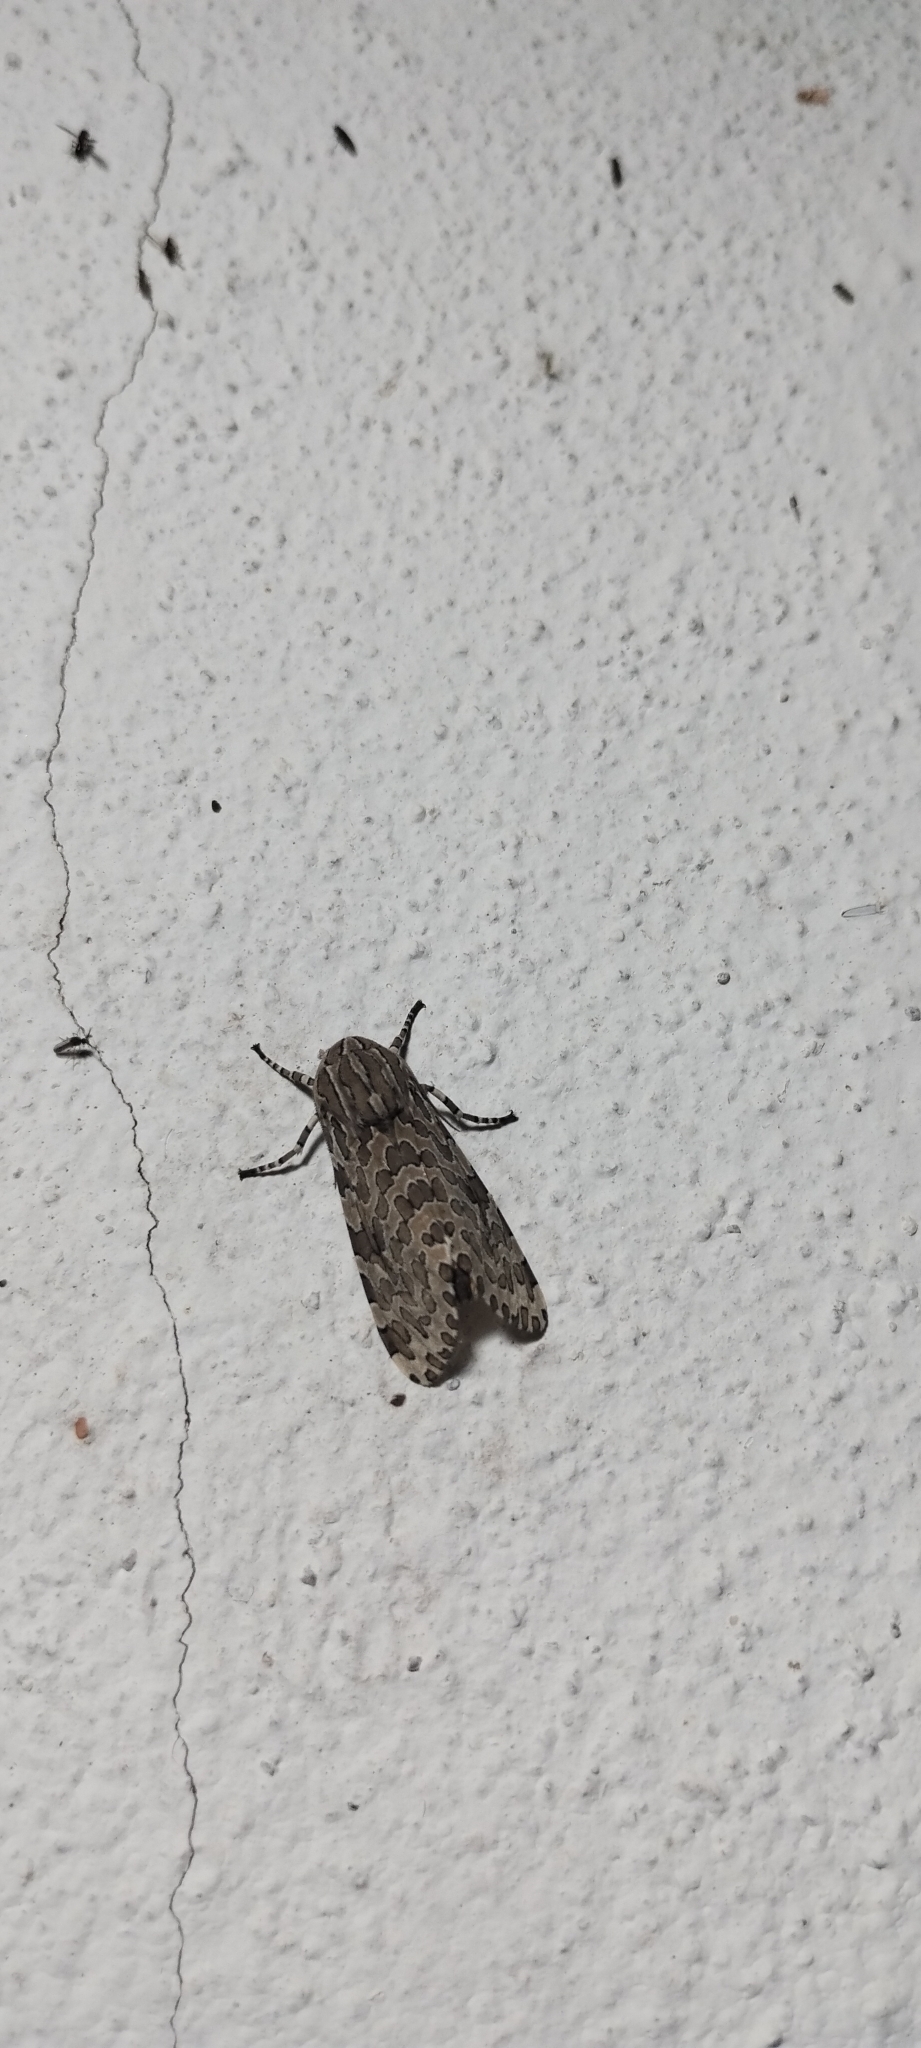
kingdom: Animalia
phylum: Arthropoda
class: Insecta
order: Lepidoptera
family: Erebidae
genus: Hypercompe
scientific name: Hypercompe indecisa
